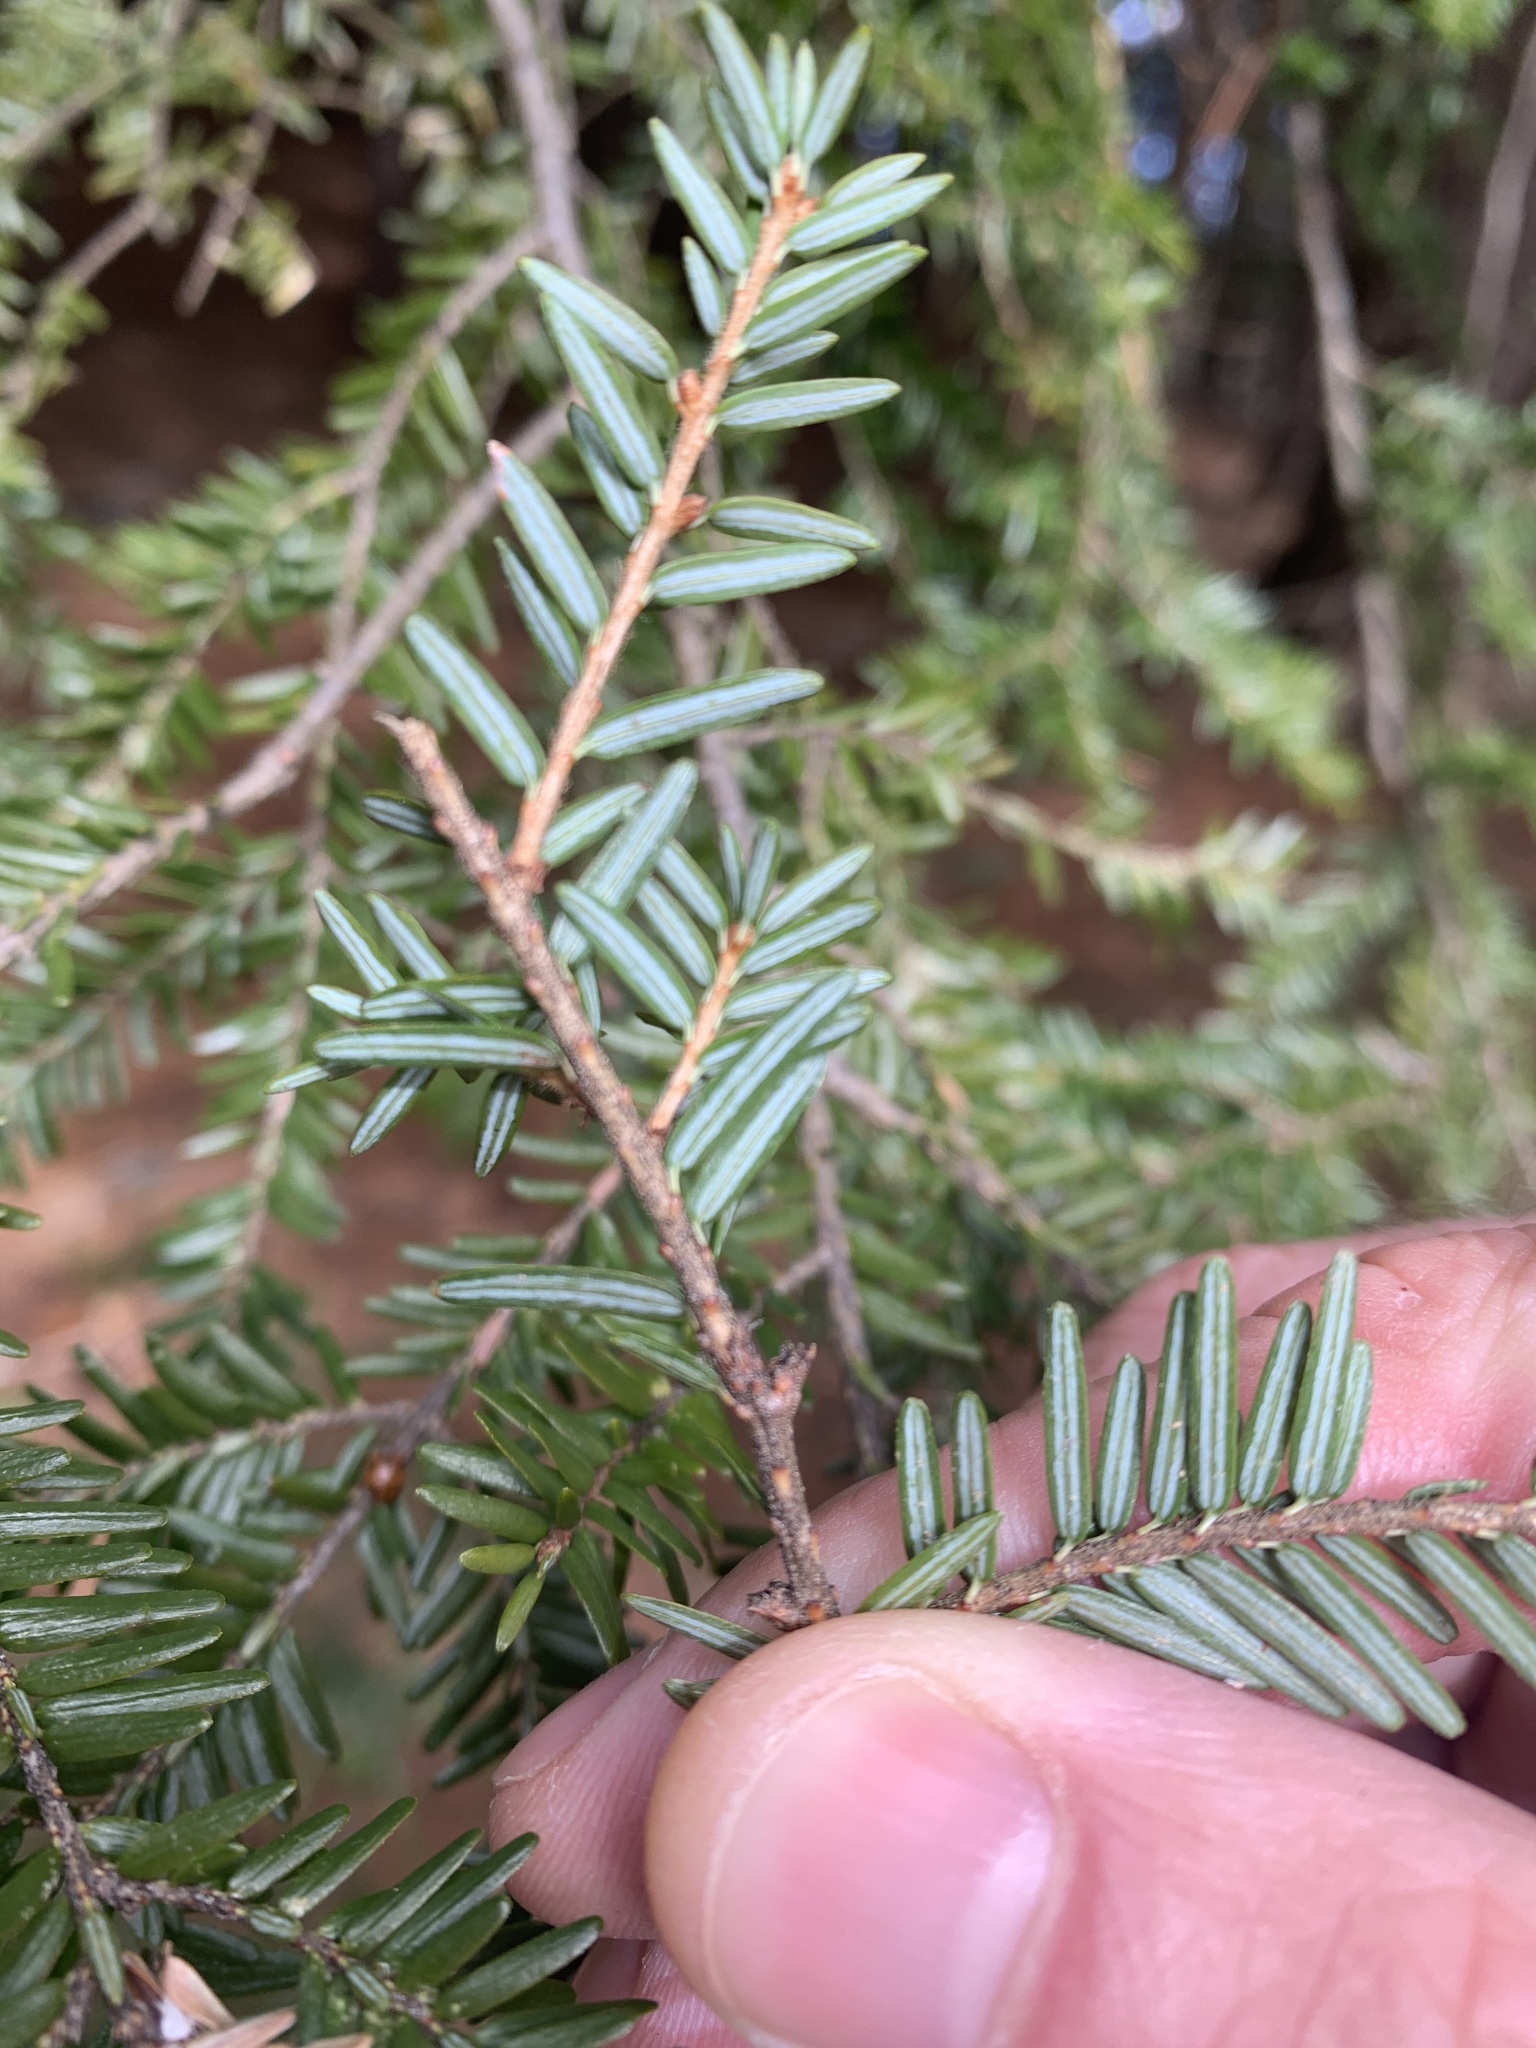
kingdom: Plantae
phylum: Tracheophyta
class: Pinopsida
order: Pinales
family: Pinaceae
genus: Tsuga
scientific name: Tsuga canadensis
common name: Eastern hemlock
